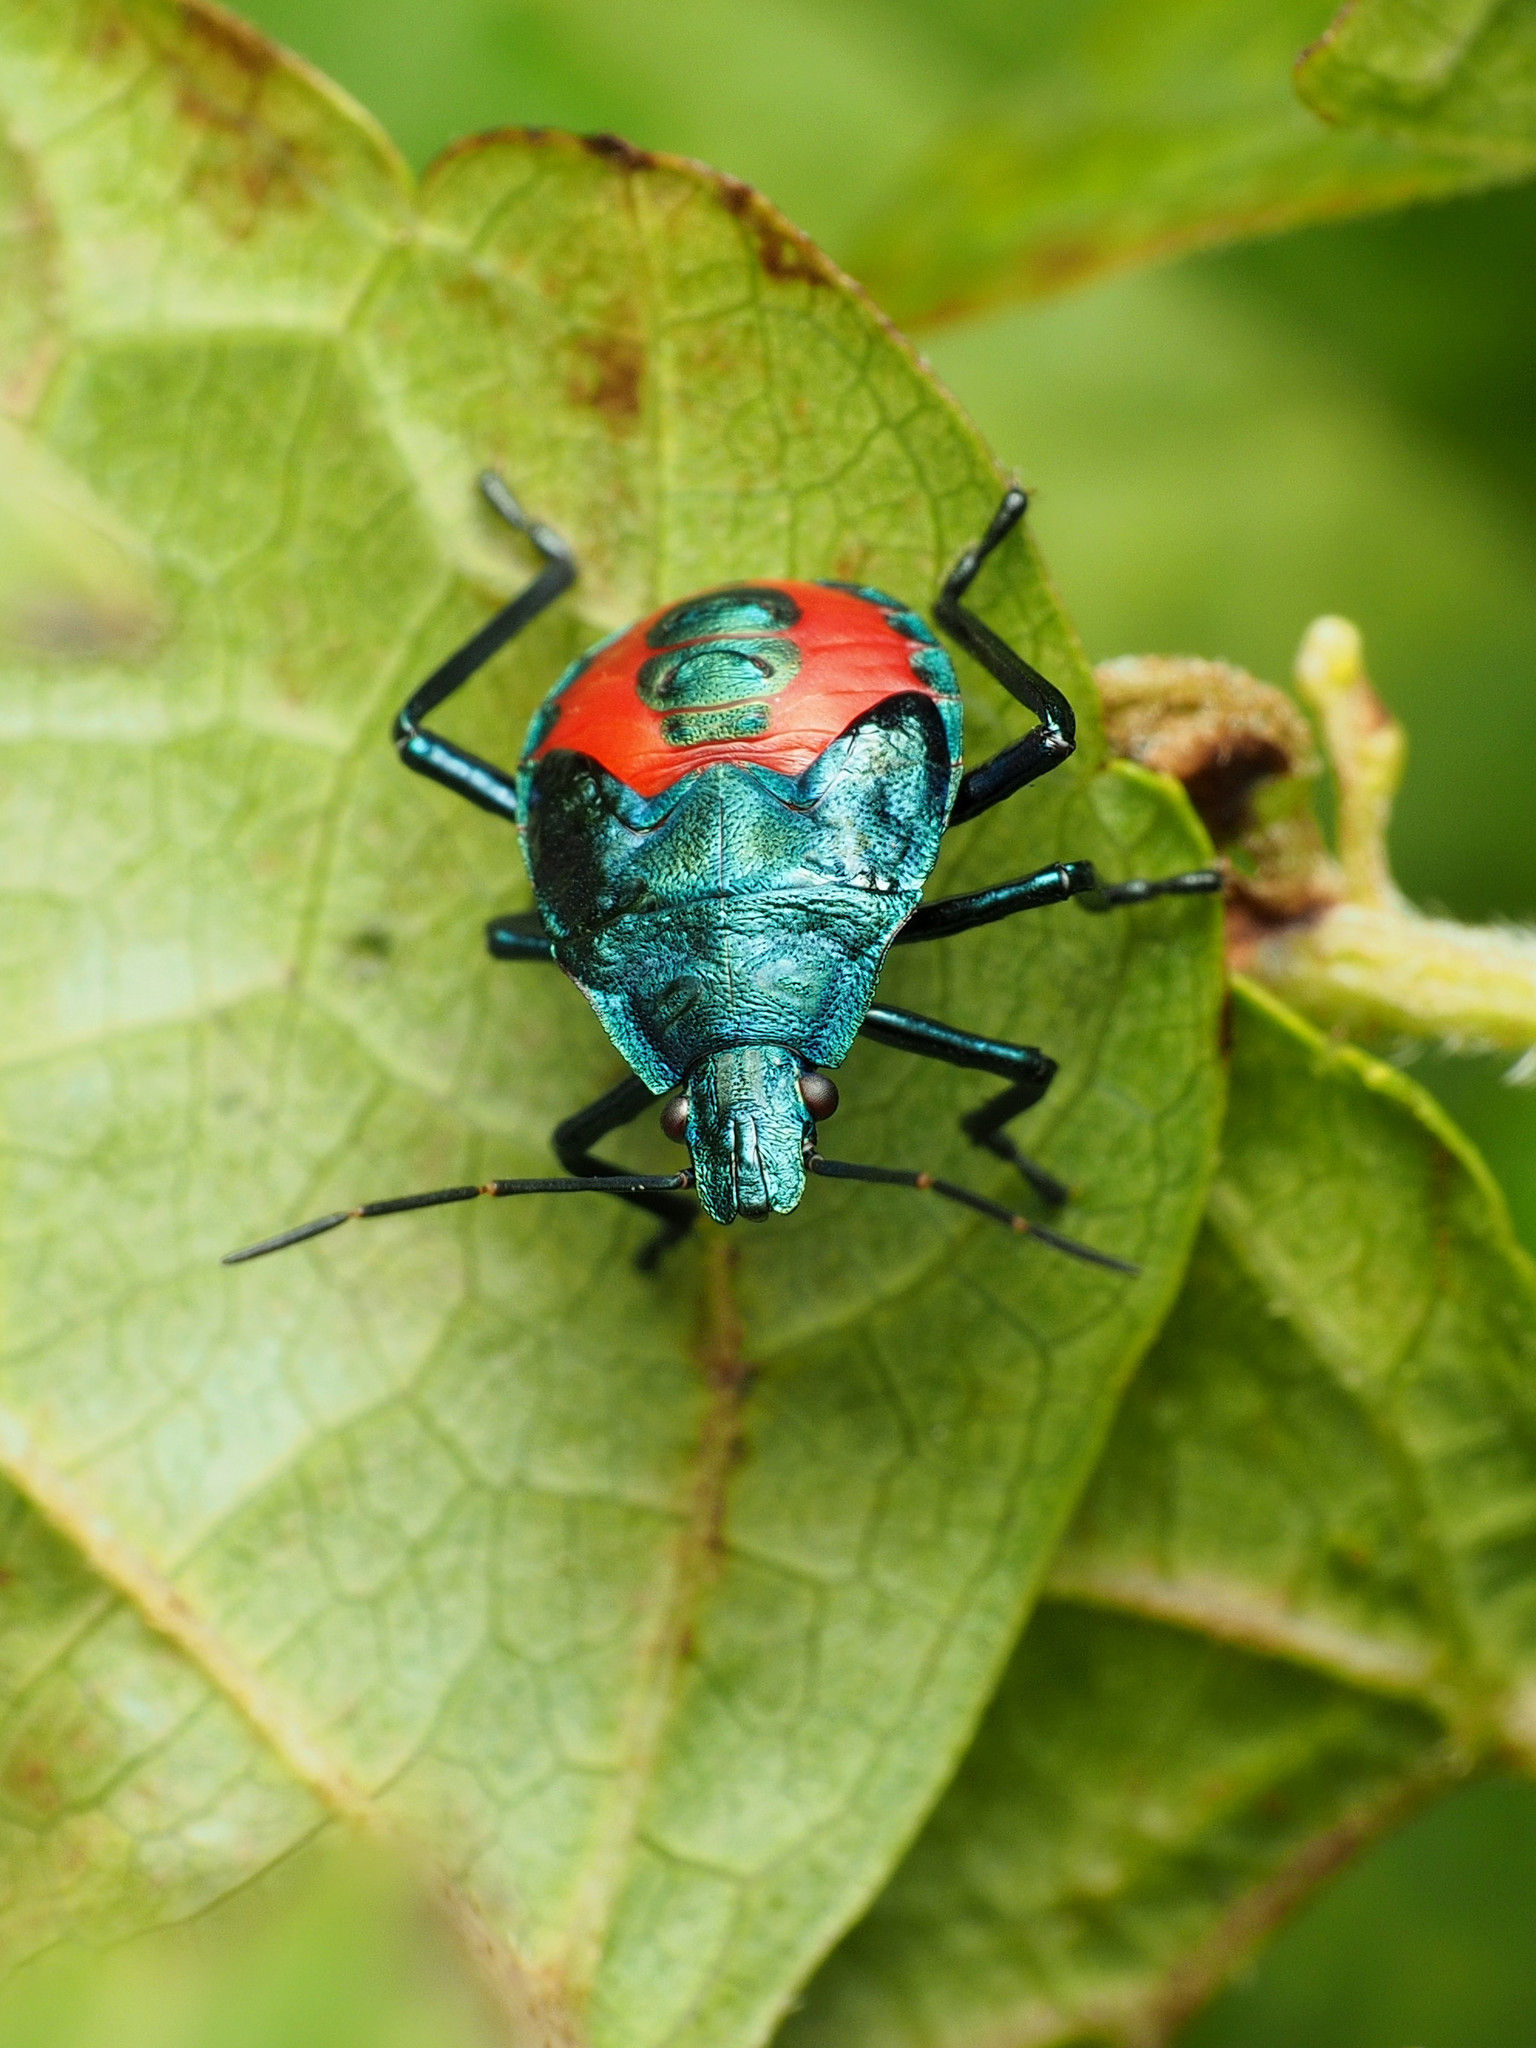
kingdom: Animalia
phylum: Arthropoda
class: Insecta
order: Hemiptera
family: Pentatomidae
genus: Euthyrhynchus
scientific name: Euthyrhynchus floridanus
